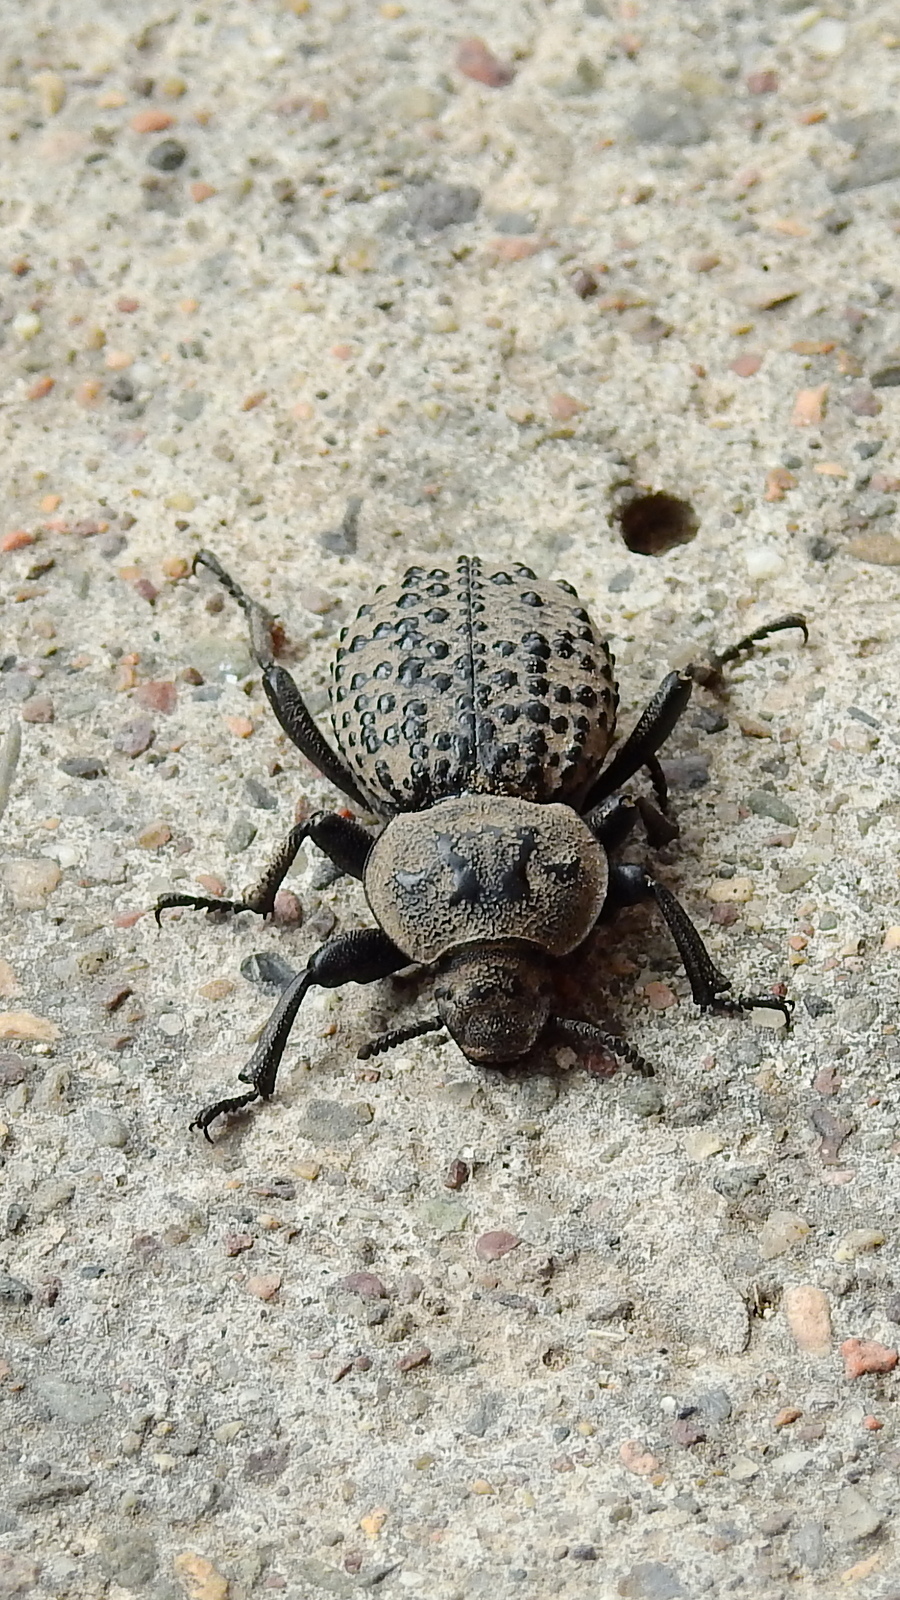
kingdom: Animalia
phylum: Arthropoda
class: Insecta
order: Coleoptera
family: Tenebrionidae
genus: Scotobius
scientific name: Scotobius pilularius
